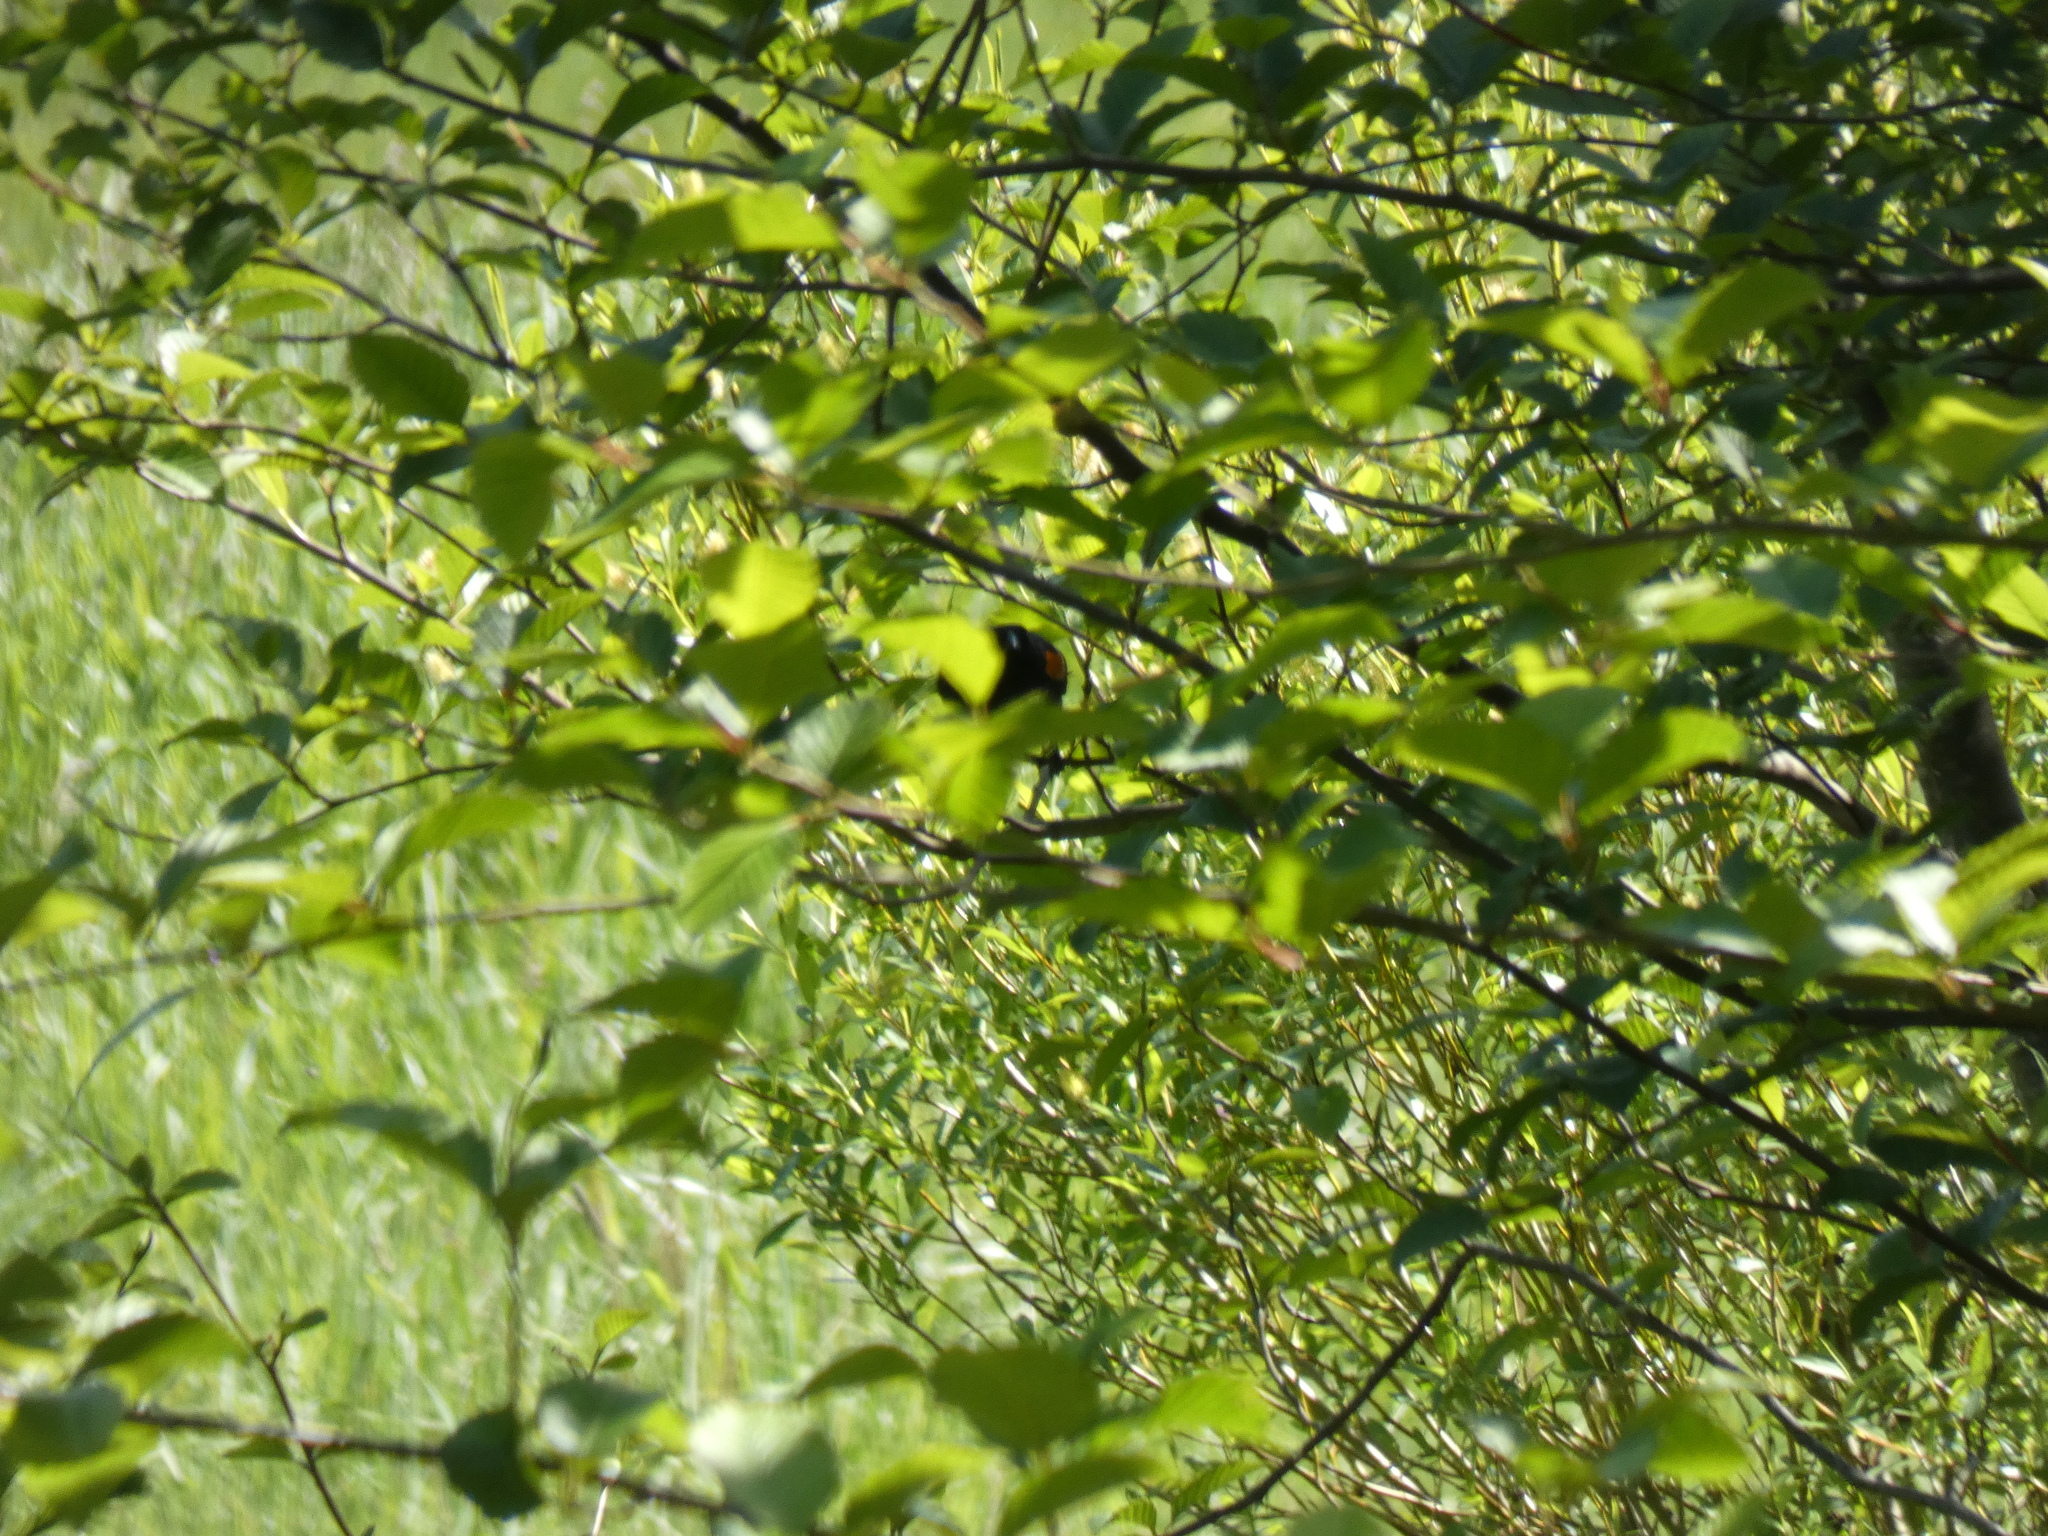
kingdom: Animalia
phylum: Chordata
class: Aves
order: Passeriformes
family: Icteridae
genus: Agelaius
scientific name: Agelaius phoeniceus
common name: Red-winged blackbird
